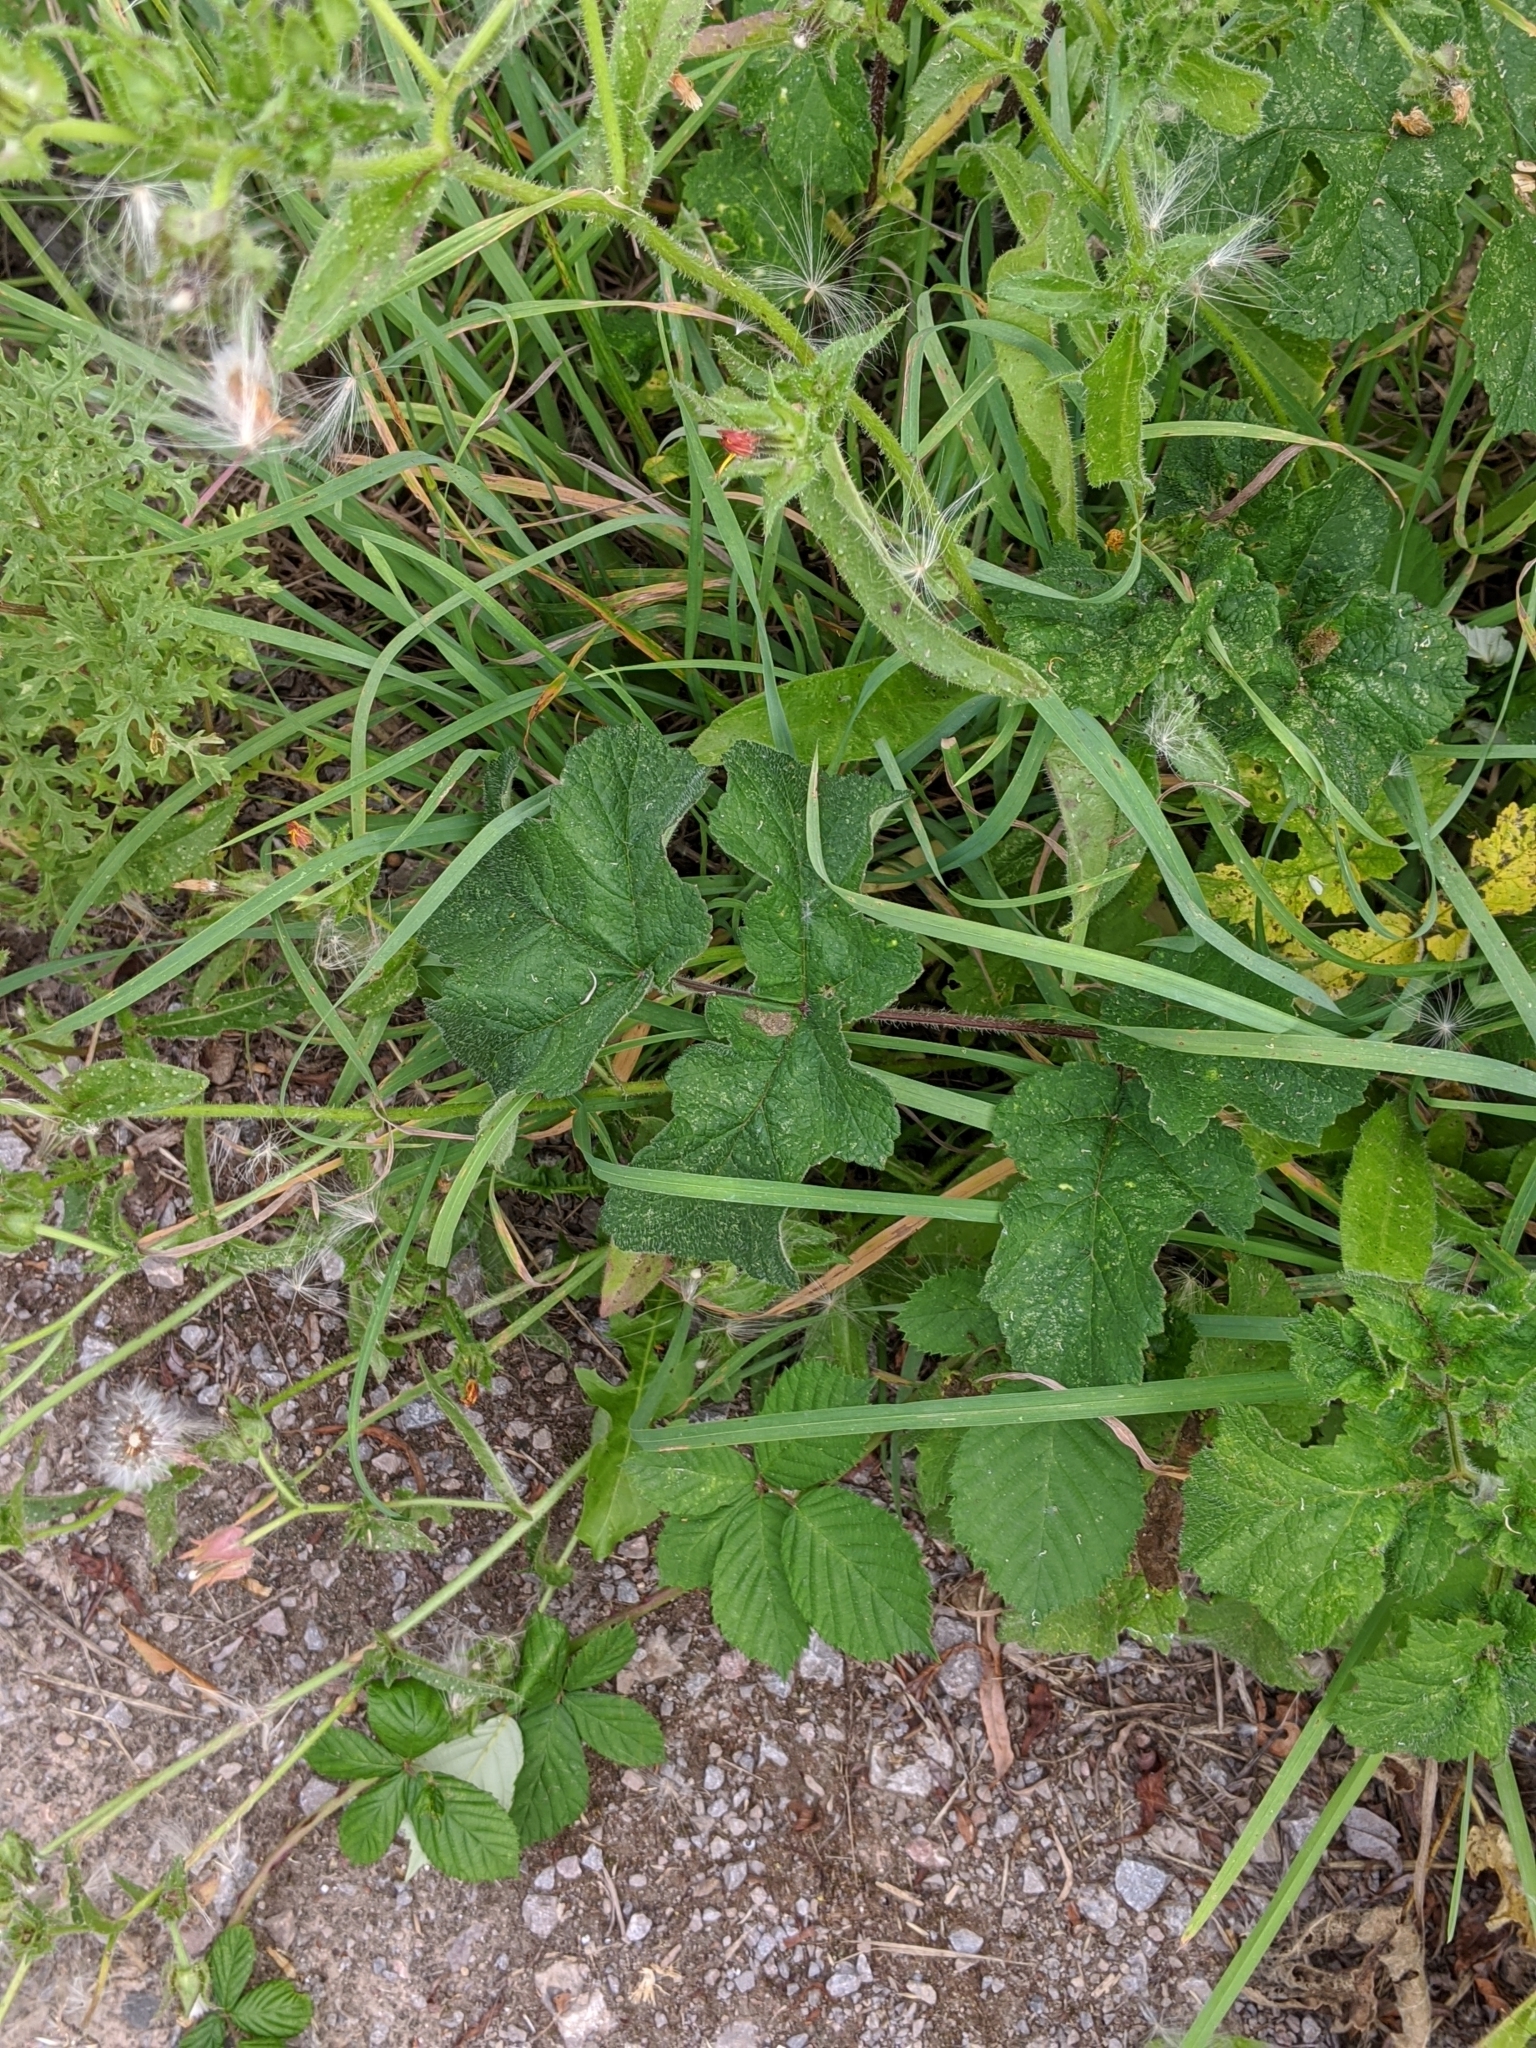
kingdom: Plantae
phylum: Tracheophyta
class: Magnoliopsida
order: Apiales
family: Apiaceae
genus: Heracleum
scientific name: Heracleum sphondylium
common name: Hogweed
